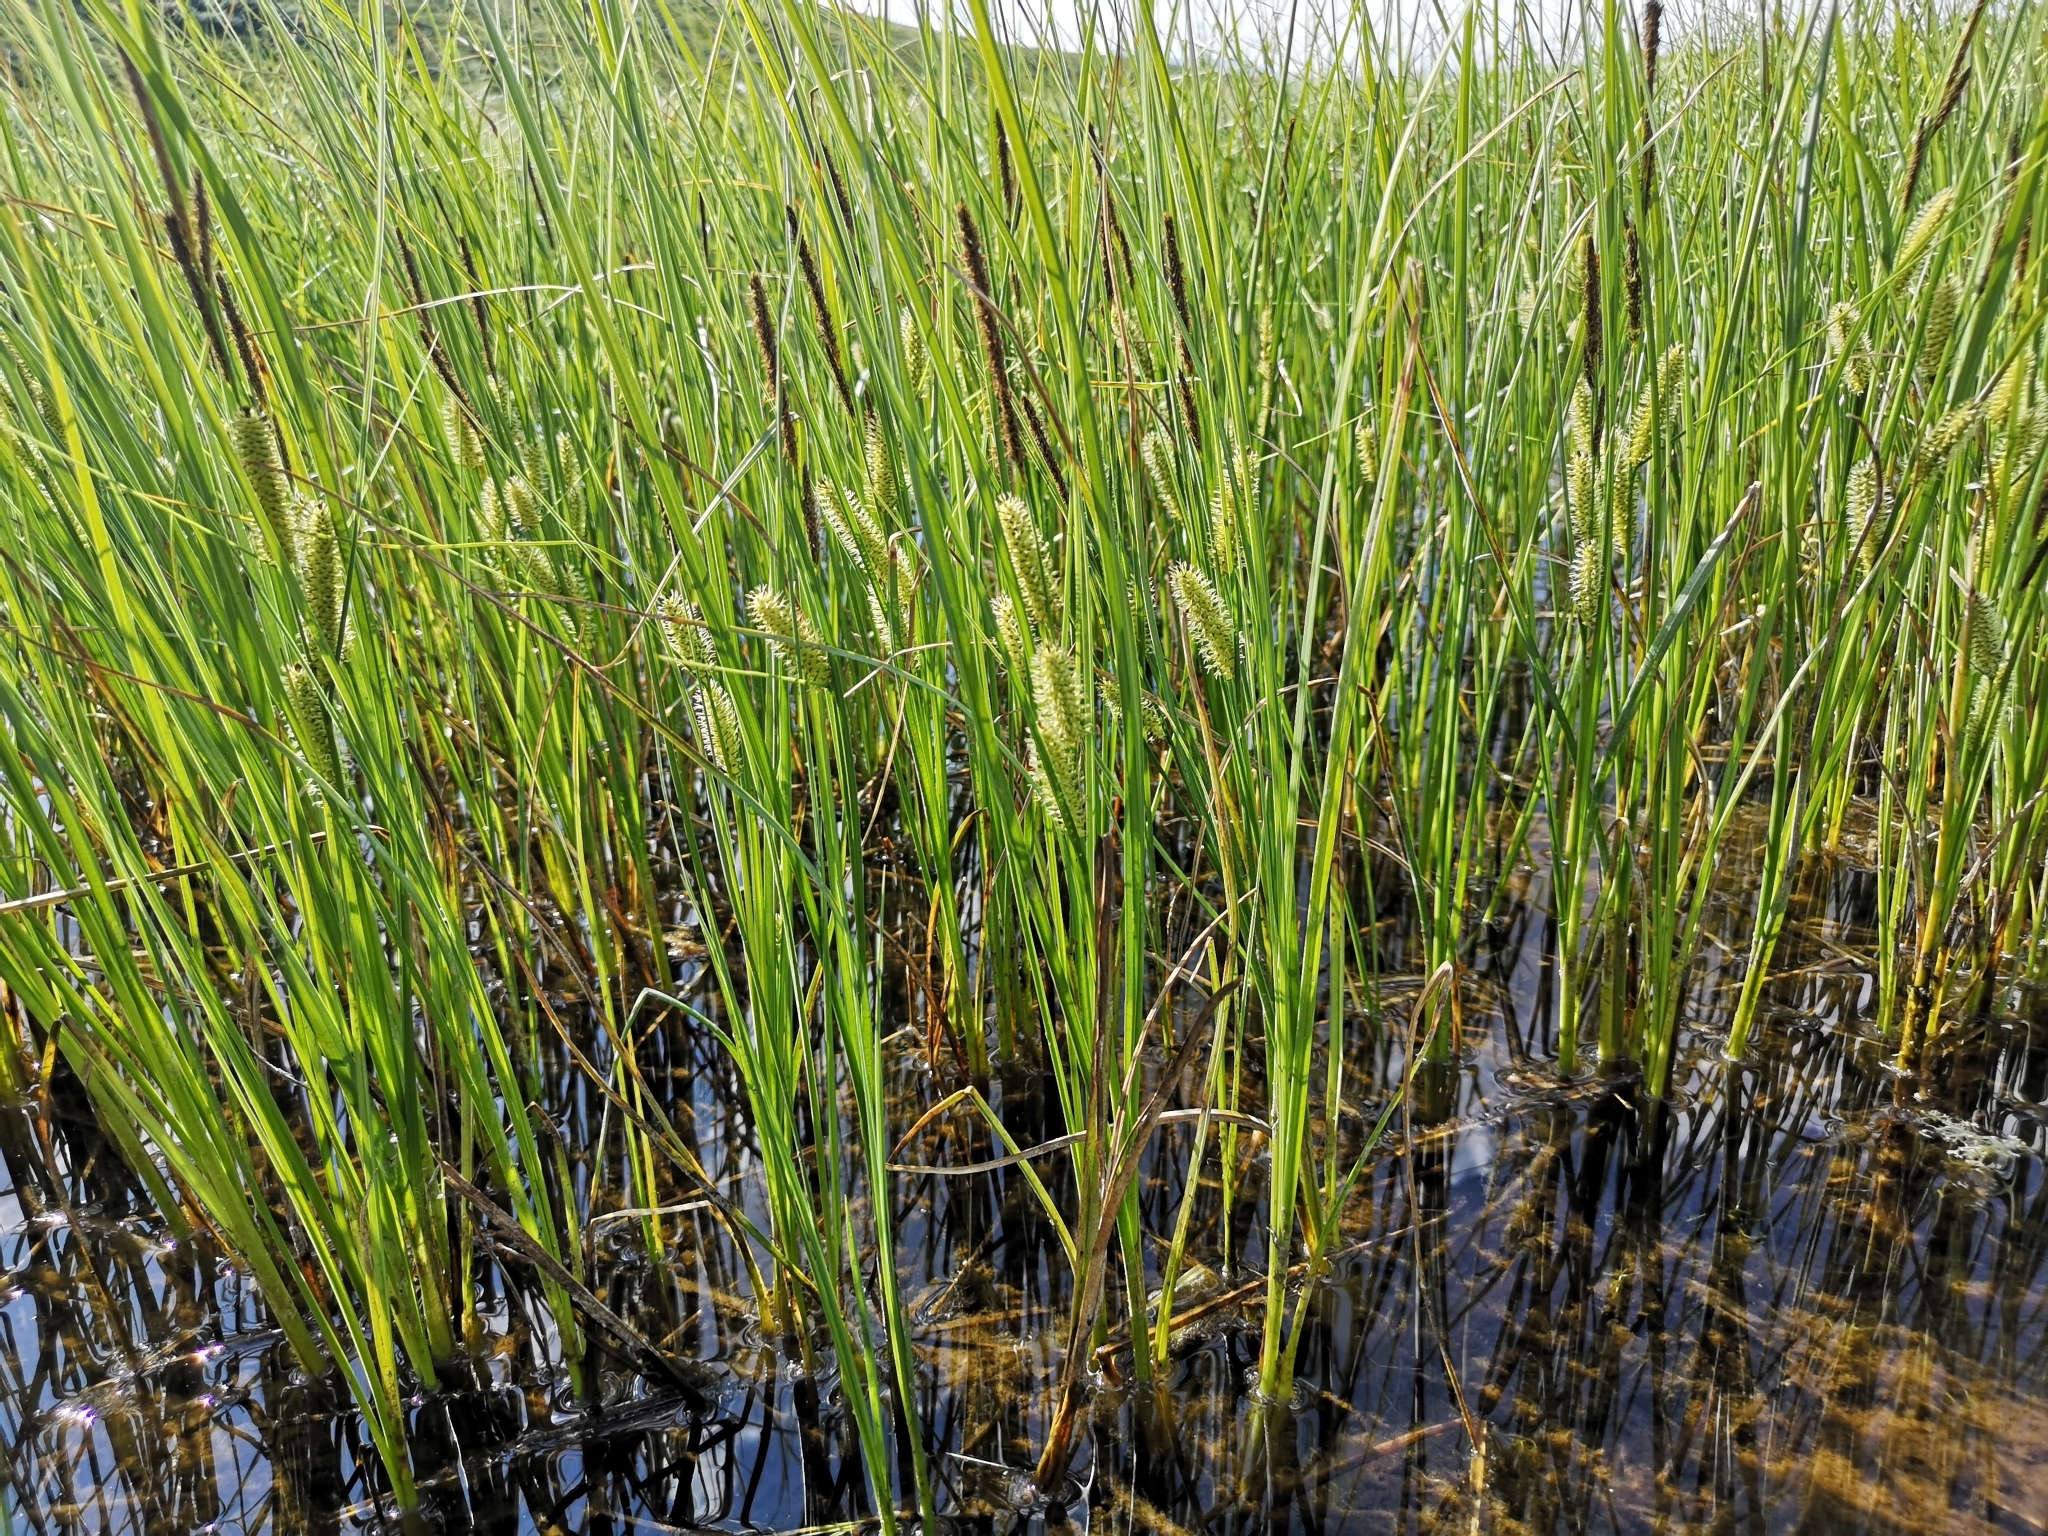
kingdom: Plantae
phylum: Tracheophyta
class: Liliopsida
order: Poales
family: Cyperaceae
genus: Carex
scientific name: Carex rostrata
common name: Bottle sedge
